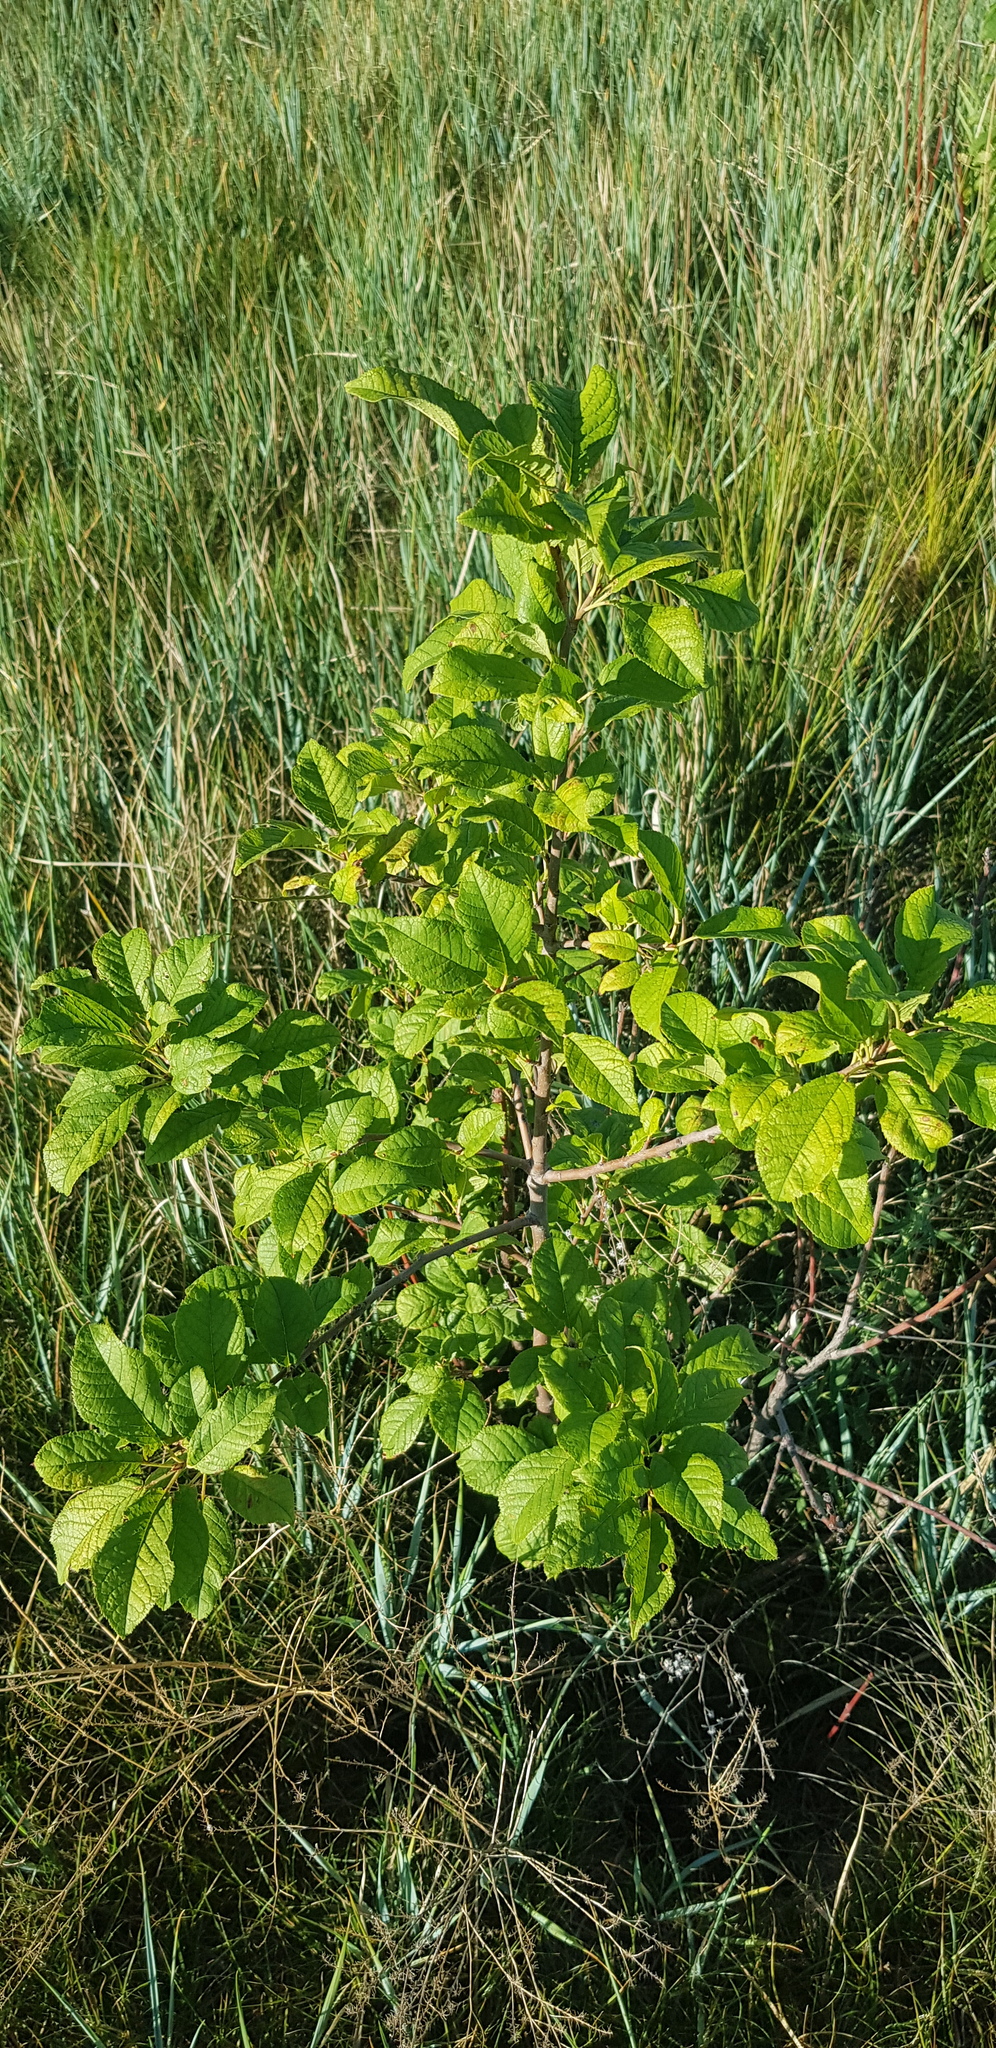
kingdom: Plantae
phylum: Tracheophyta
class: Magnoliopsida
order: Rosales
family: Rosaceae
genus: Prunus
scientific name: Prunus padus
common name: Bird cherry
